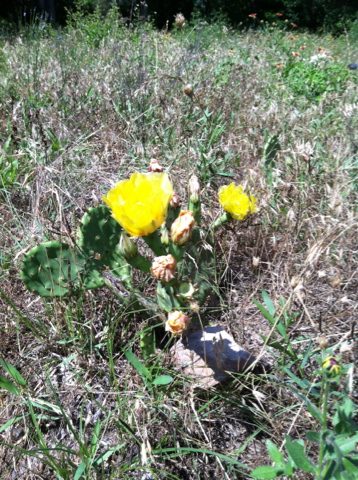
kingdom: Plantae
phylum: Tracheophyta
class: Magnoliopsida
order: Caryophyllales
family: Cactaceae
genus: Opuntia
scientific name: Opuntia macrorhiza
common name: Grassland pricklypear
